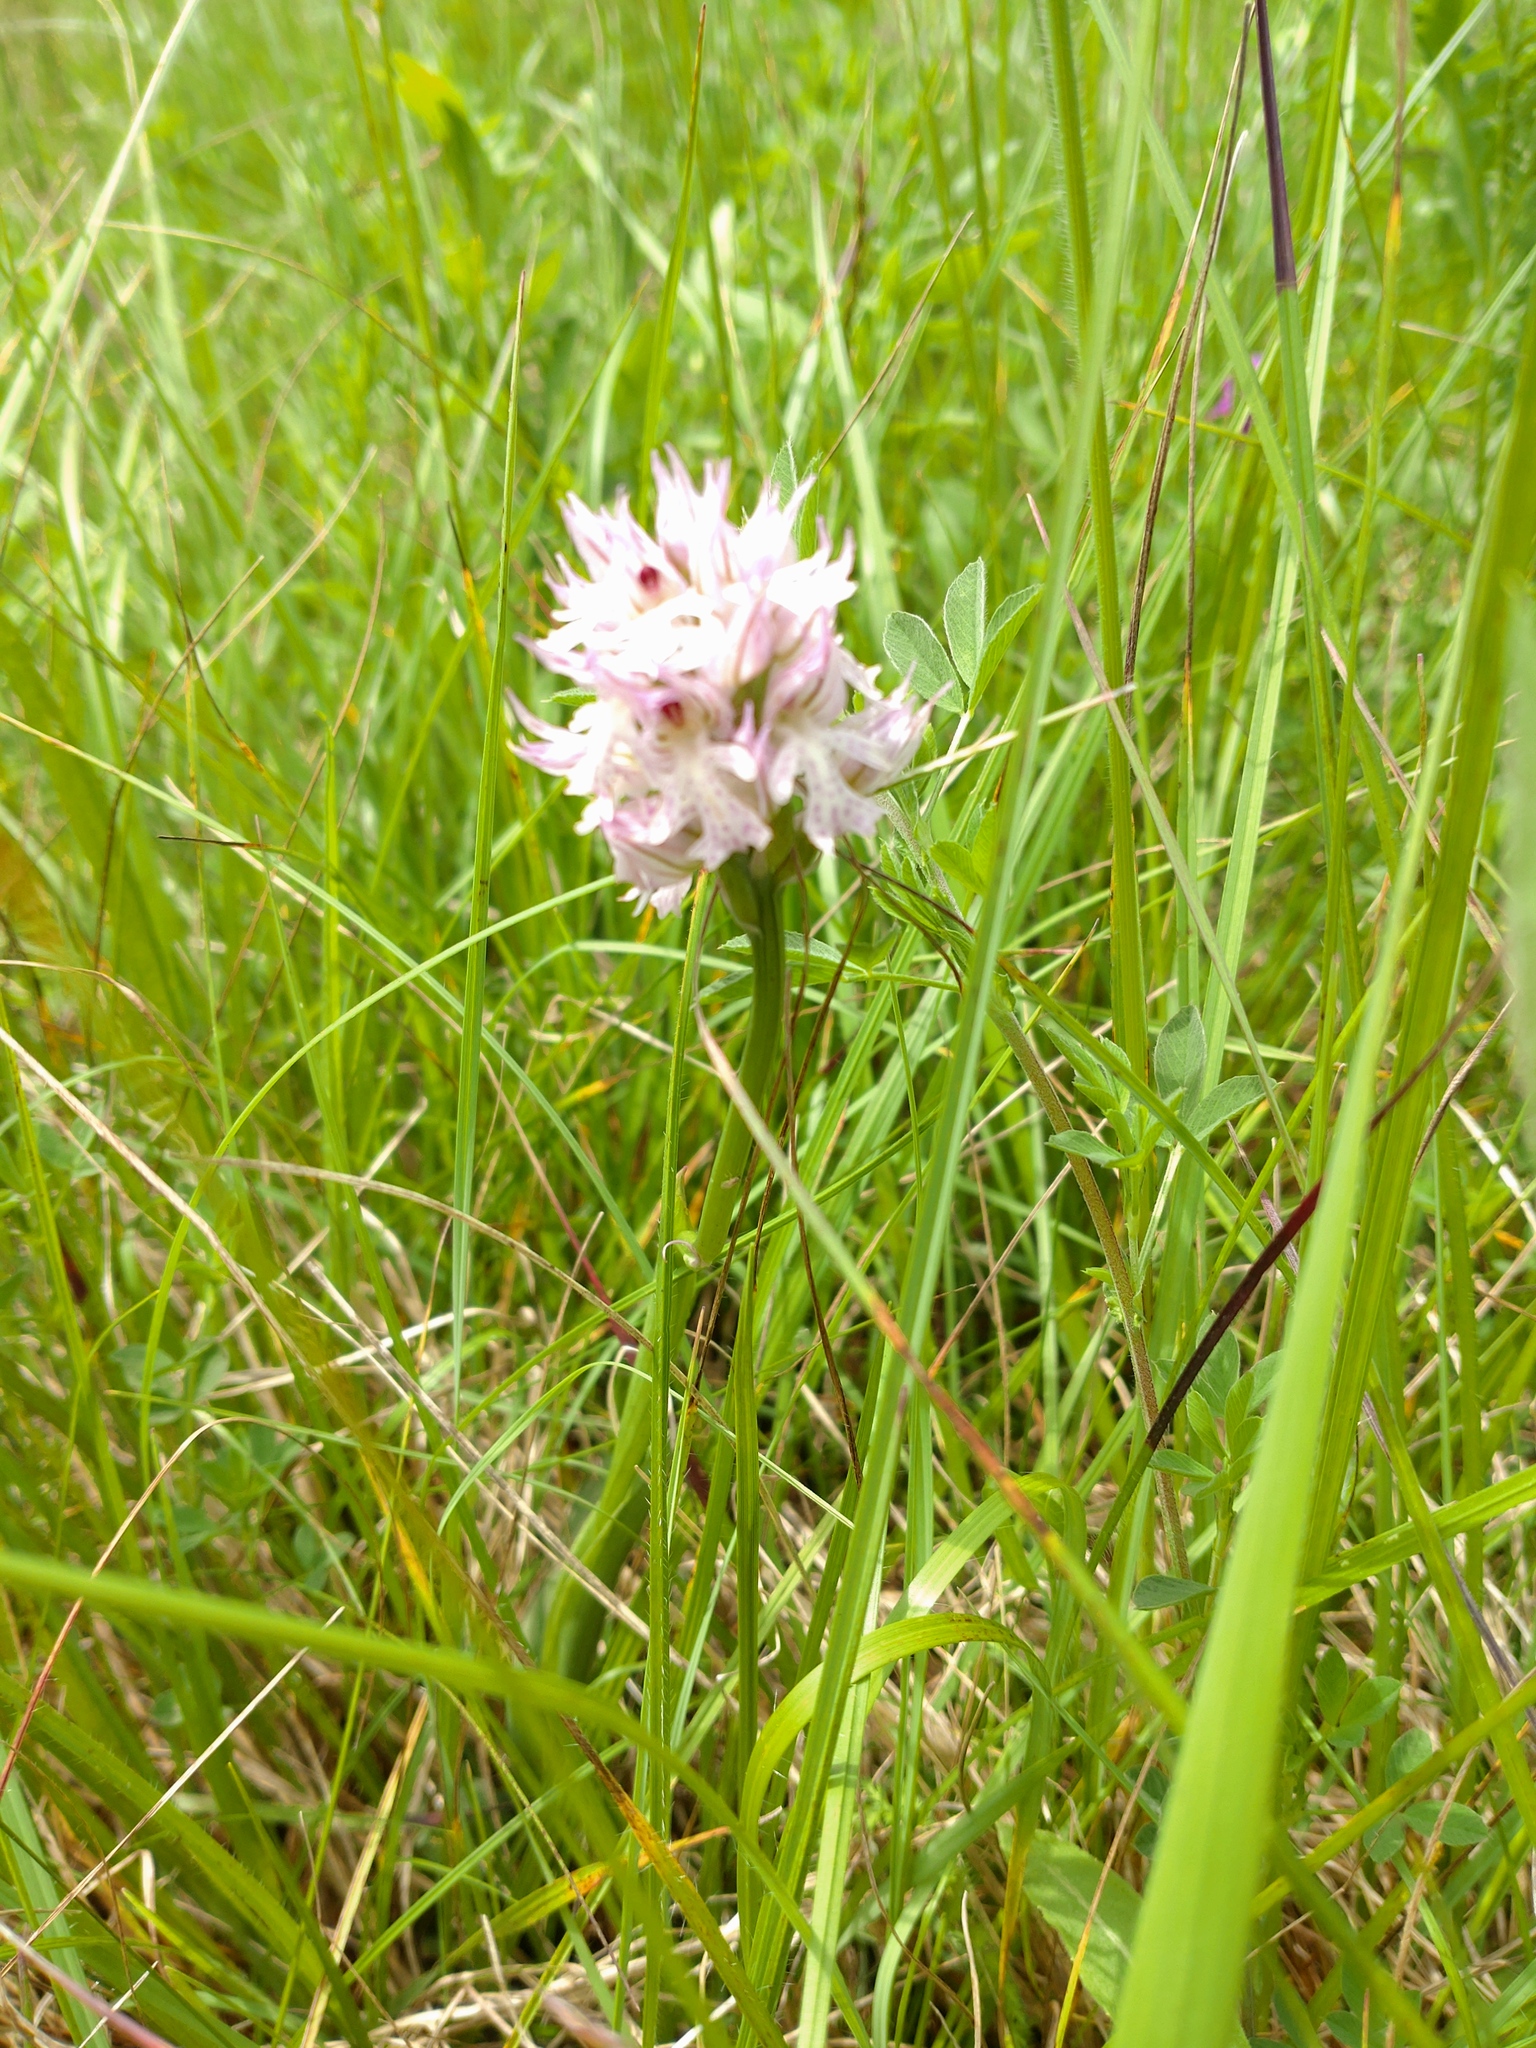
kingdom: Plantae
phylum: Tracheophyta
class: Liliopsida
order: Asparagales
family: Orchidaceae
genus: Neotinea
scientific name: Neotinea tridentata
